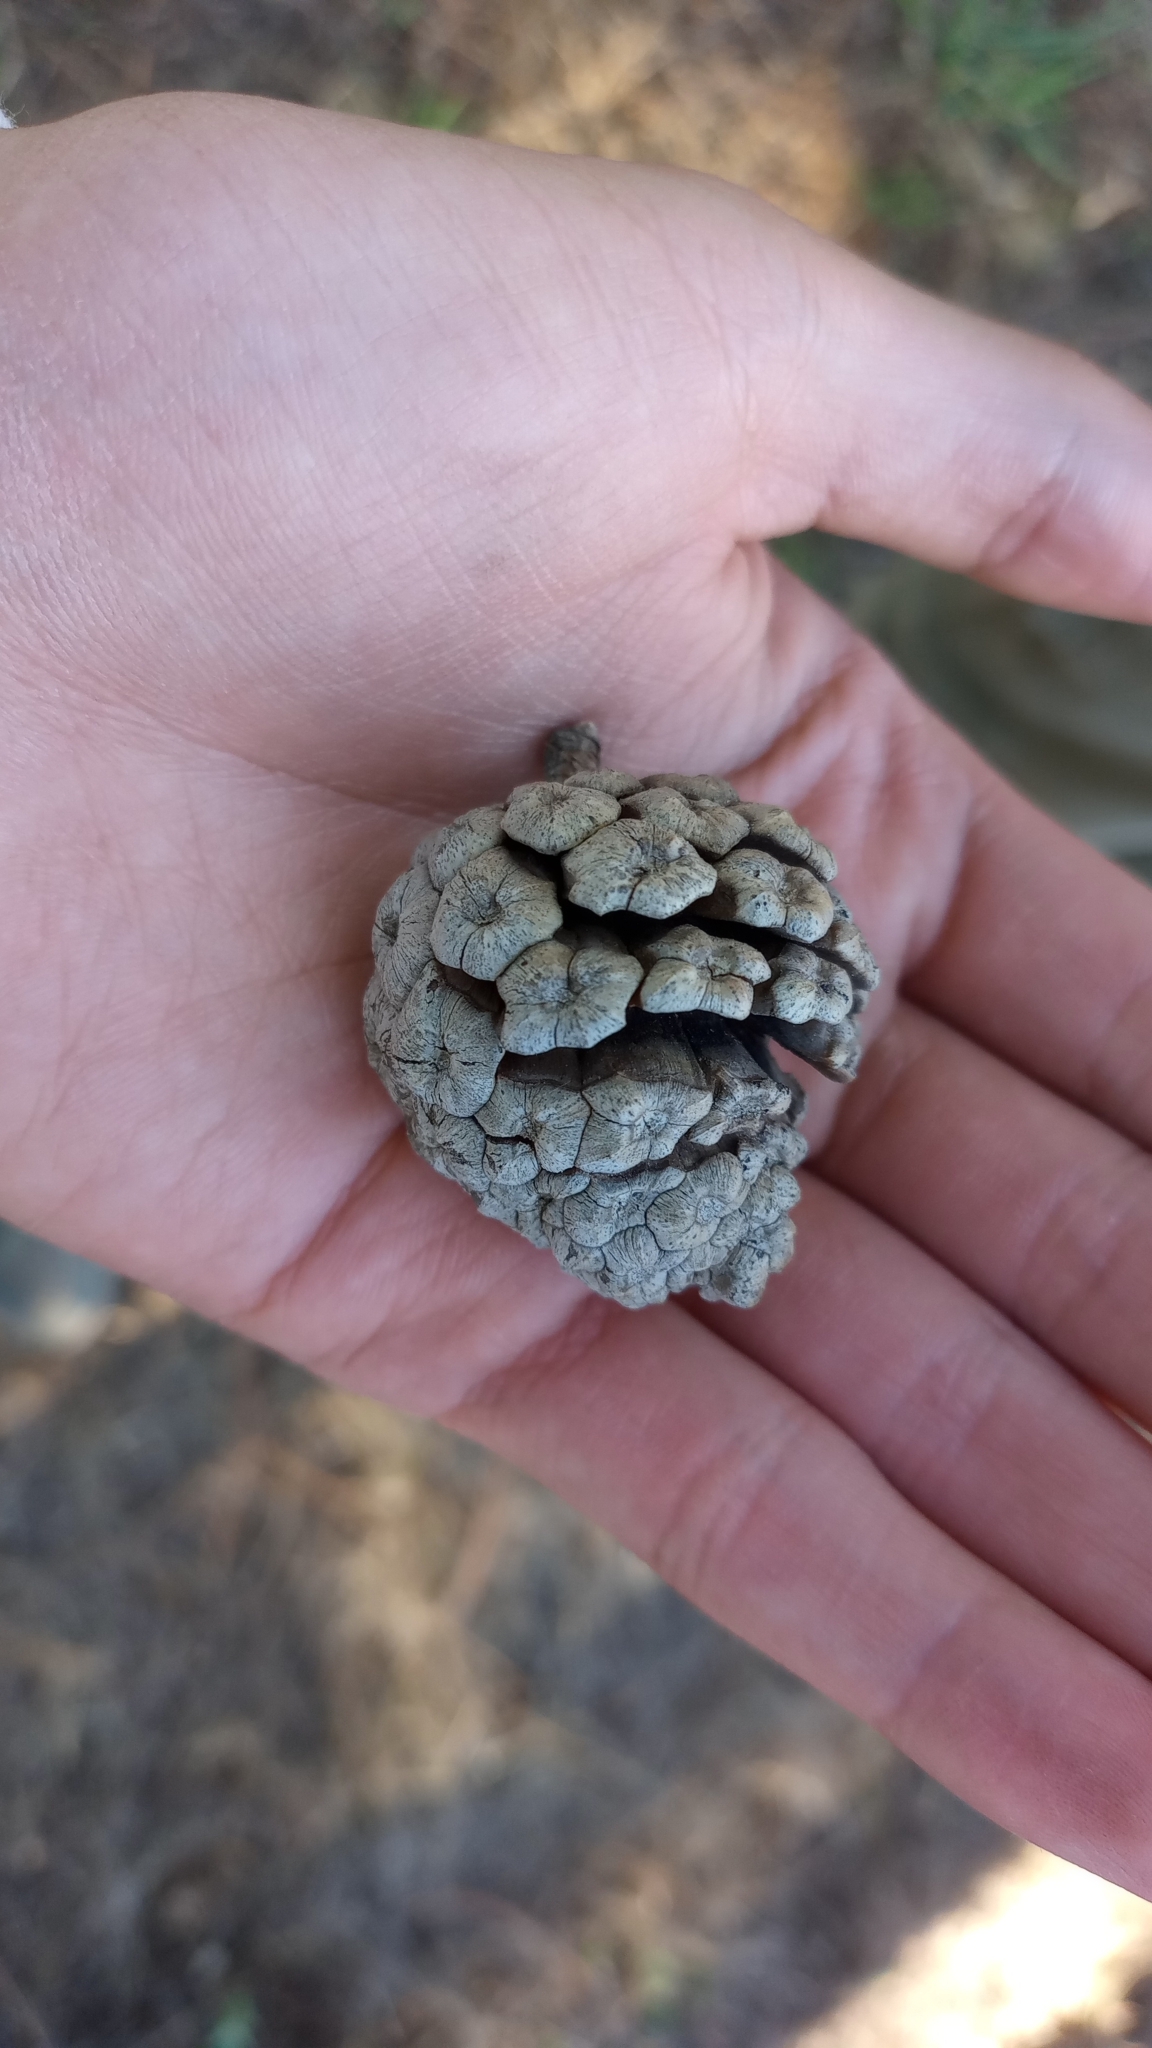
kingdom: Plantae
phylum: Tracheophyta
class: Pinopsida
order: Pinales
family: Pinaceae
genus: Pinus
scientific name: Pinus oocarpa
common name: Egg-cone pine
